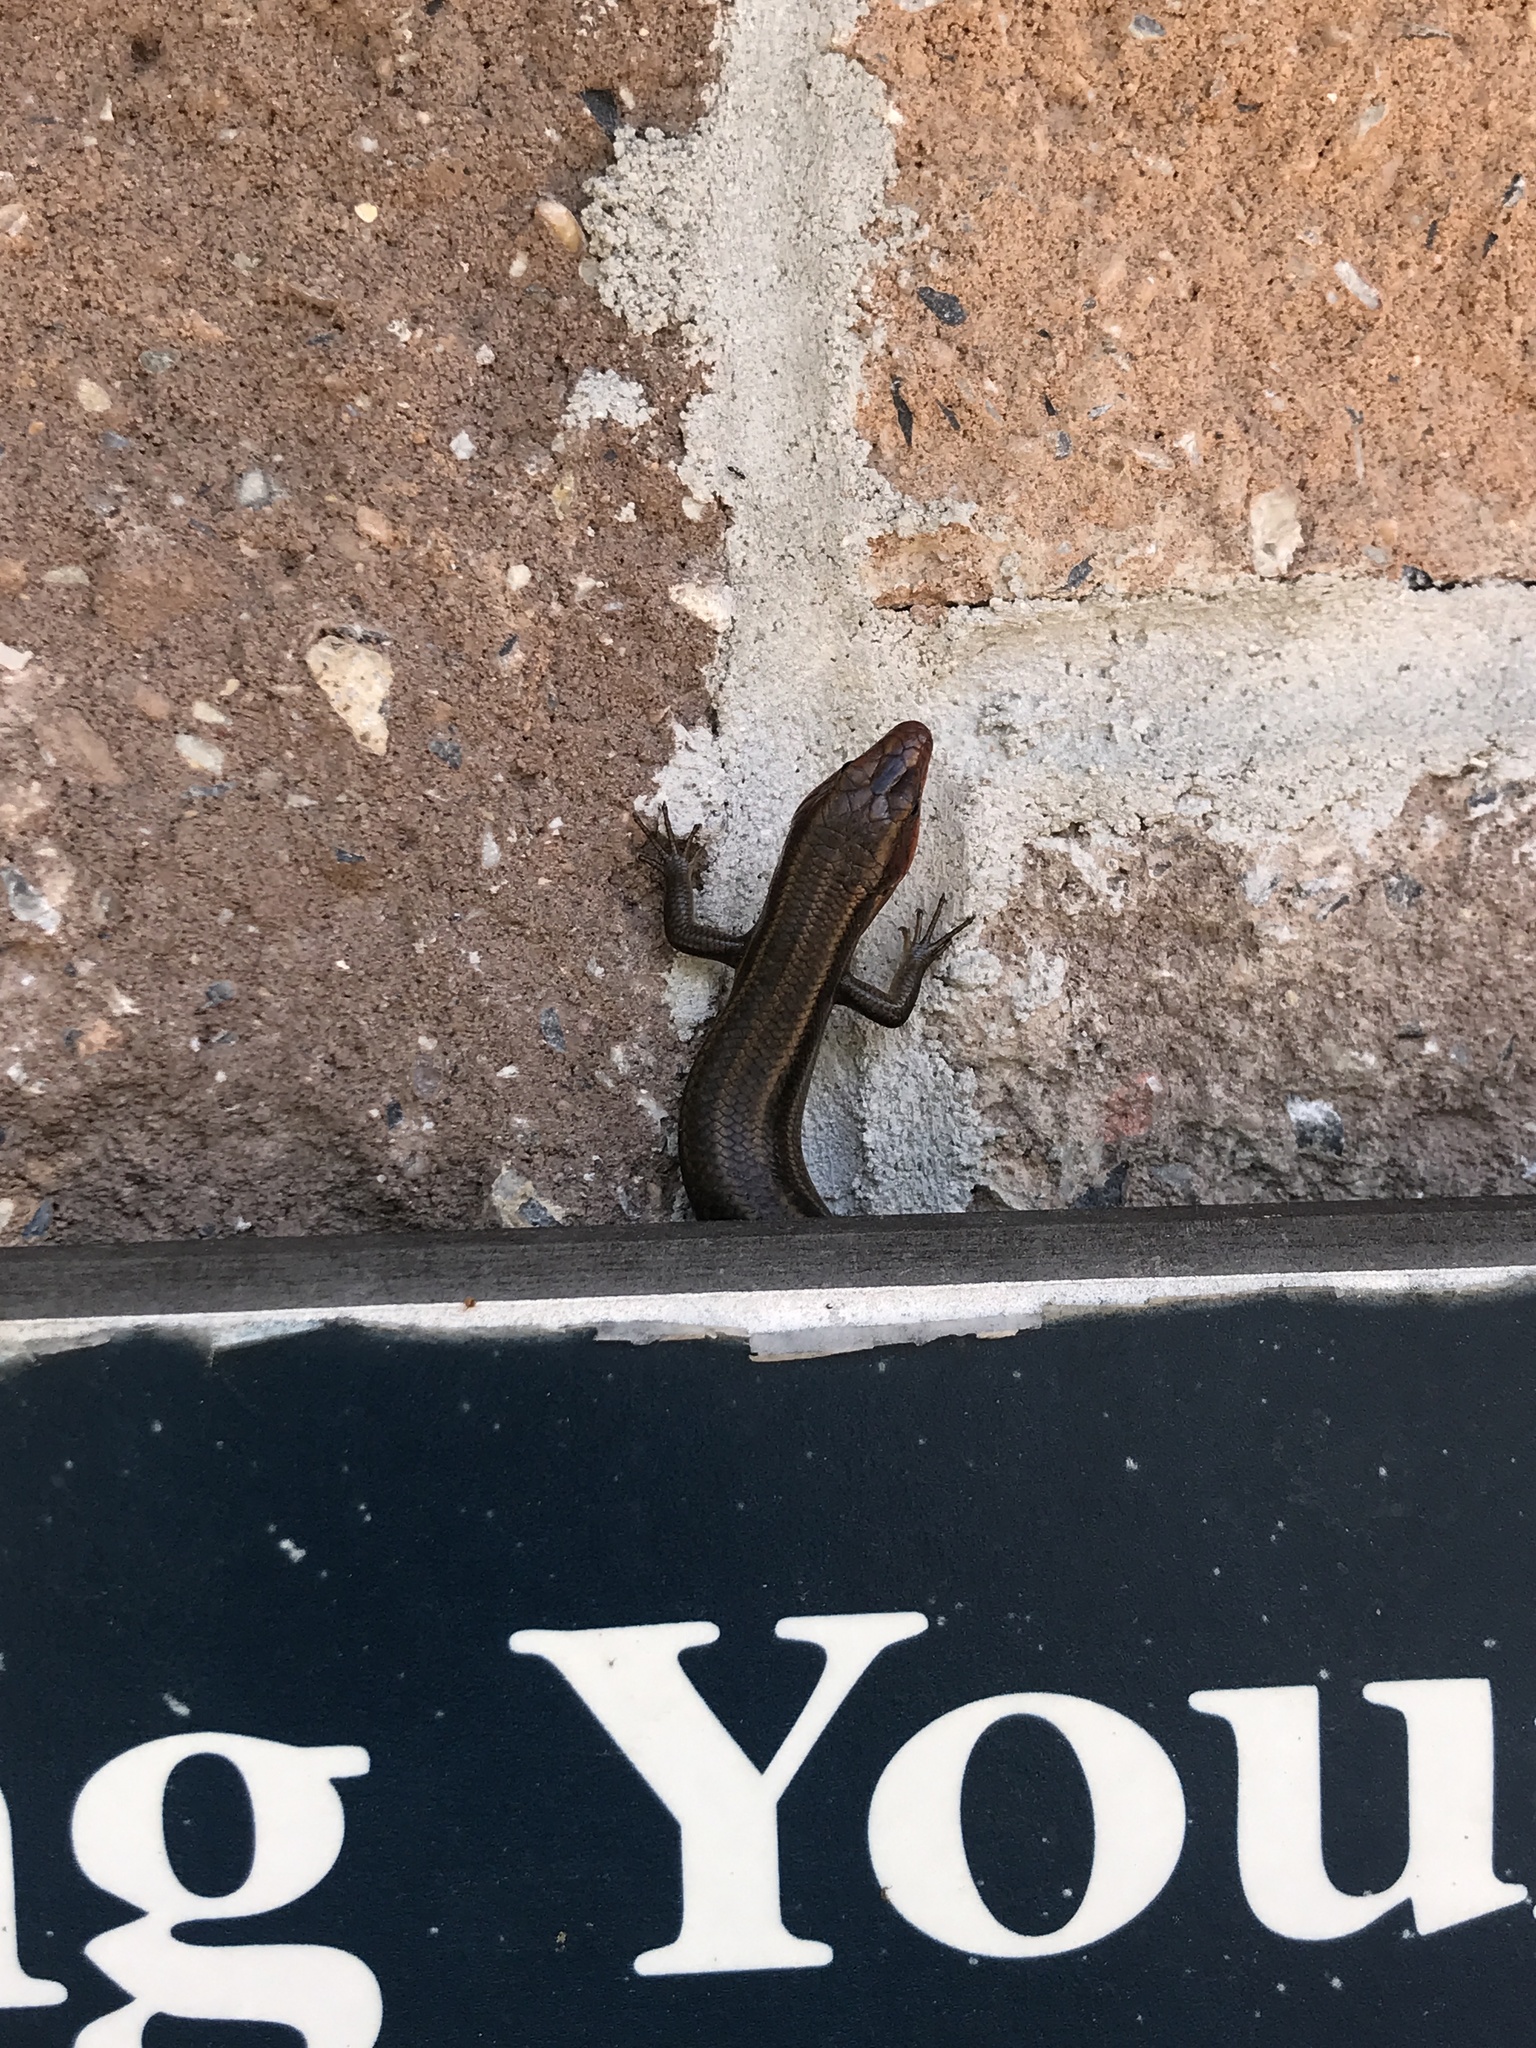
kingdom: Animalia
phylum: Chordata
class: Squamata
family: Scincidae
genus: Plestiodon
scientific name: Plestiodon fasciatus
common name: Five-lined skink
